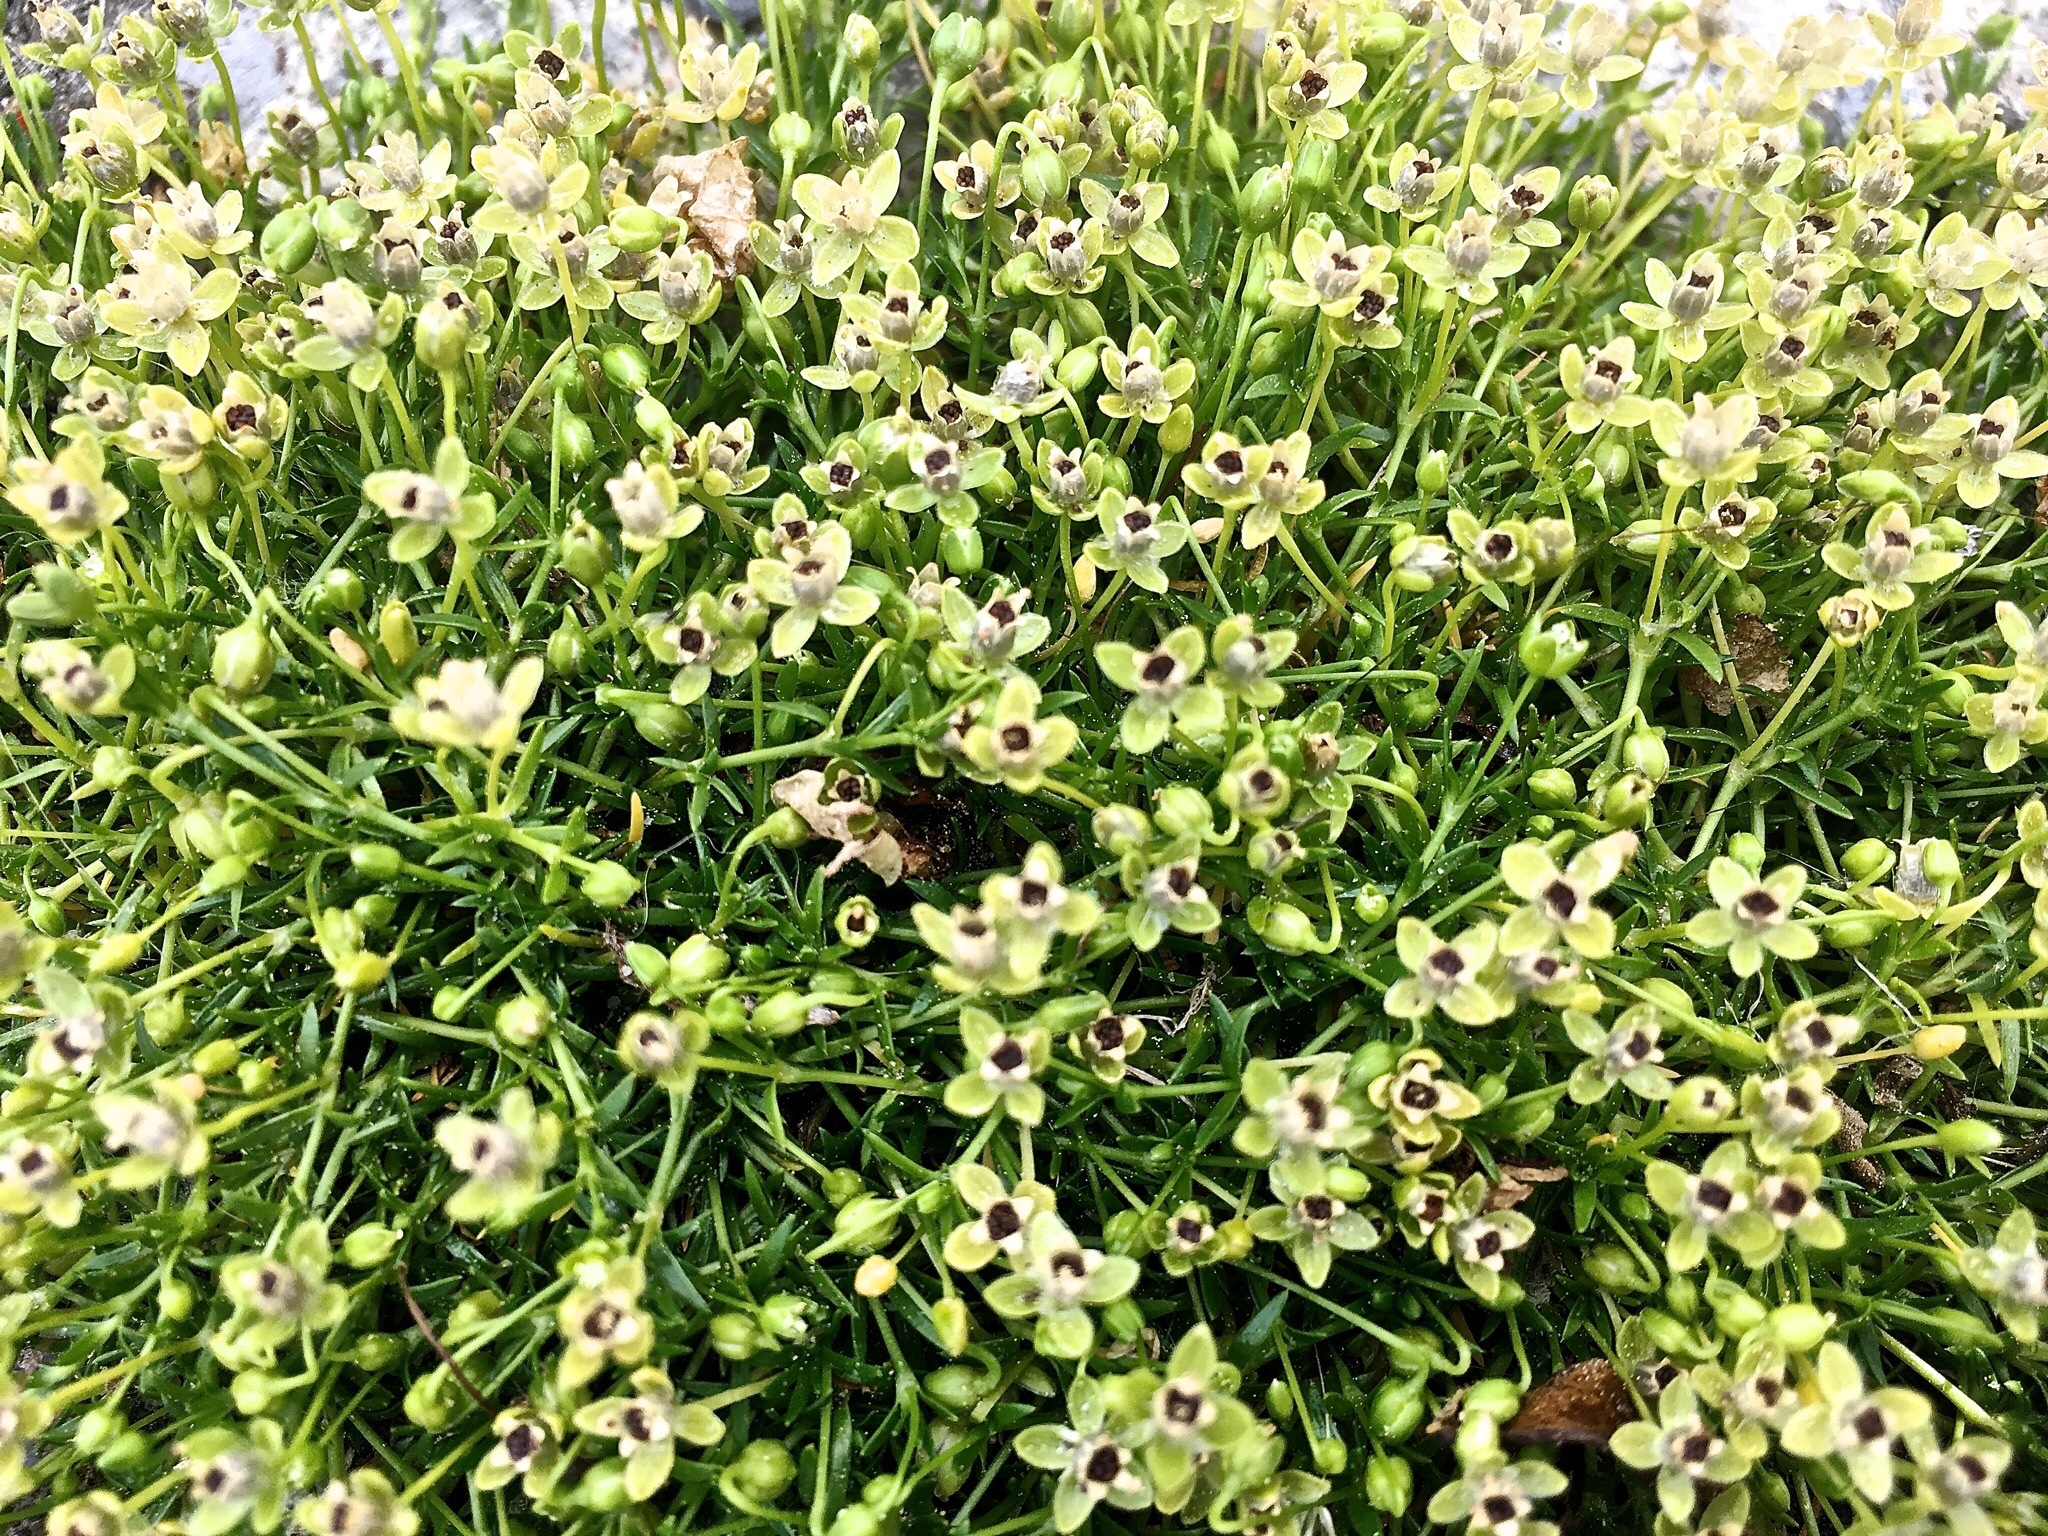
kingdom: Plantae
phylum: Tracheophyta
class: Magnoliopsida
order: Caryophyllales
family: Caryophyllaceae
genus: Sagina
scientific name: Sagina procumbens
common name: Procumbent pearlwort
